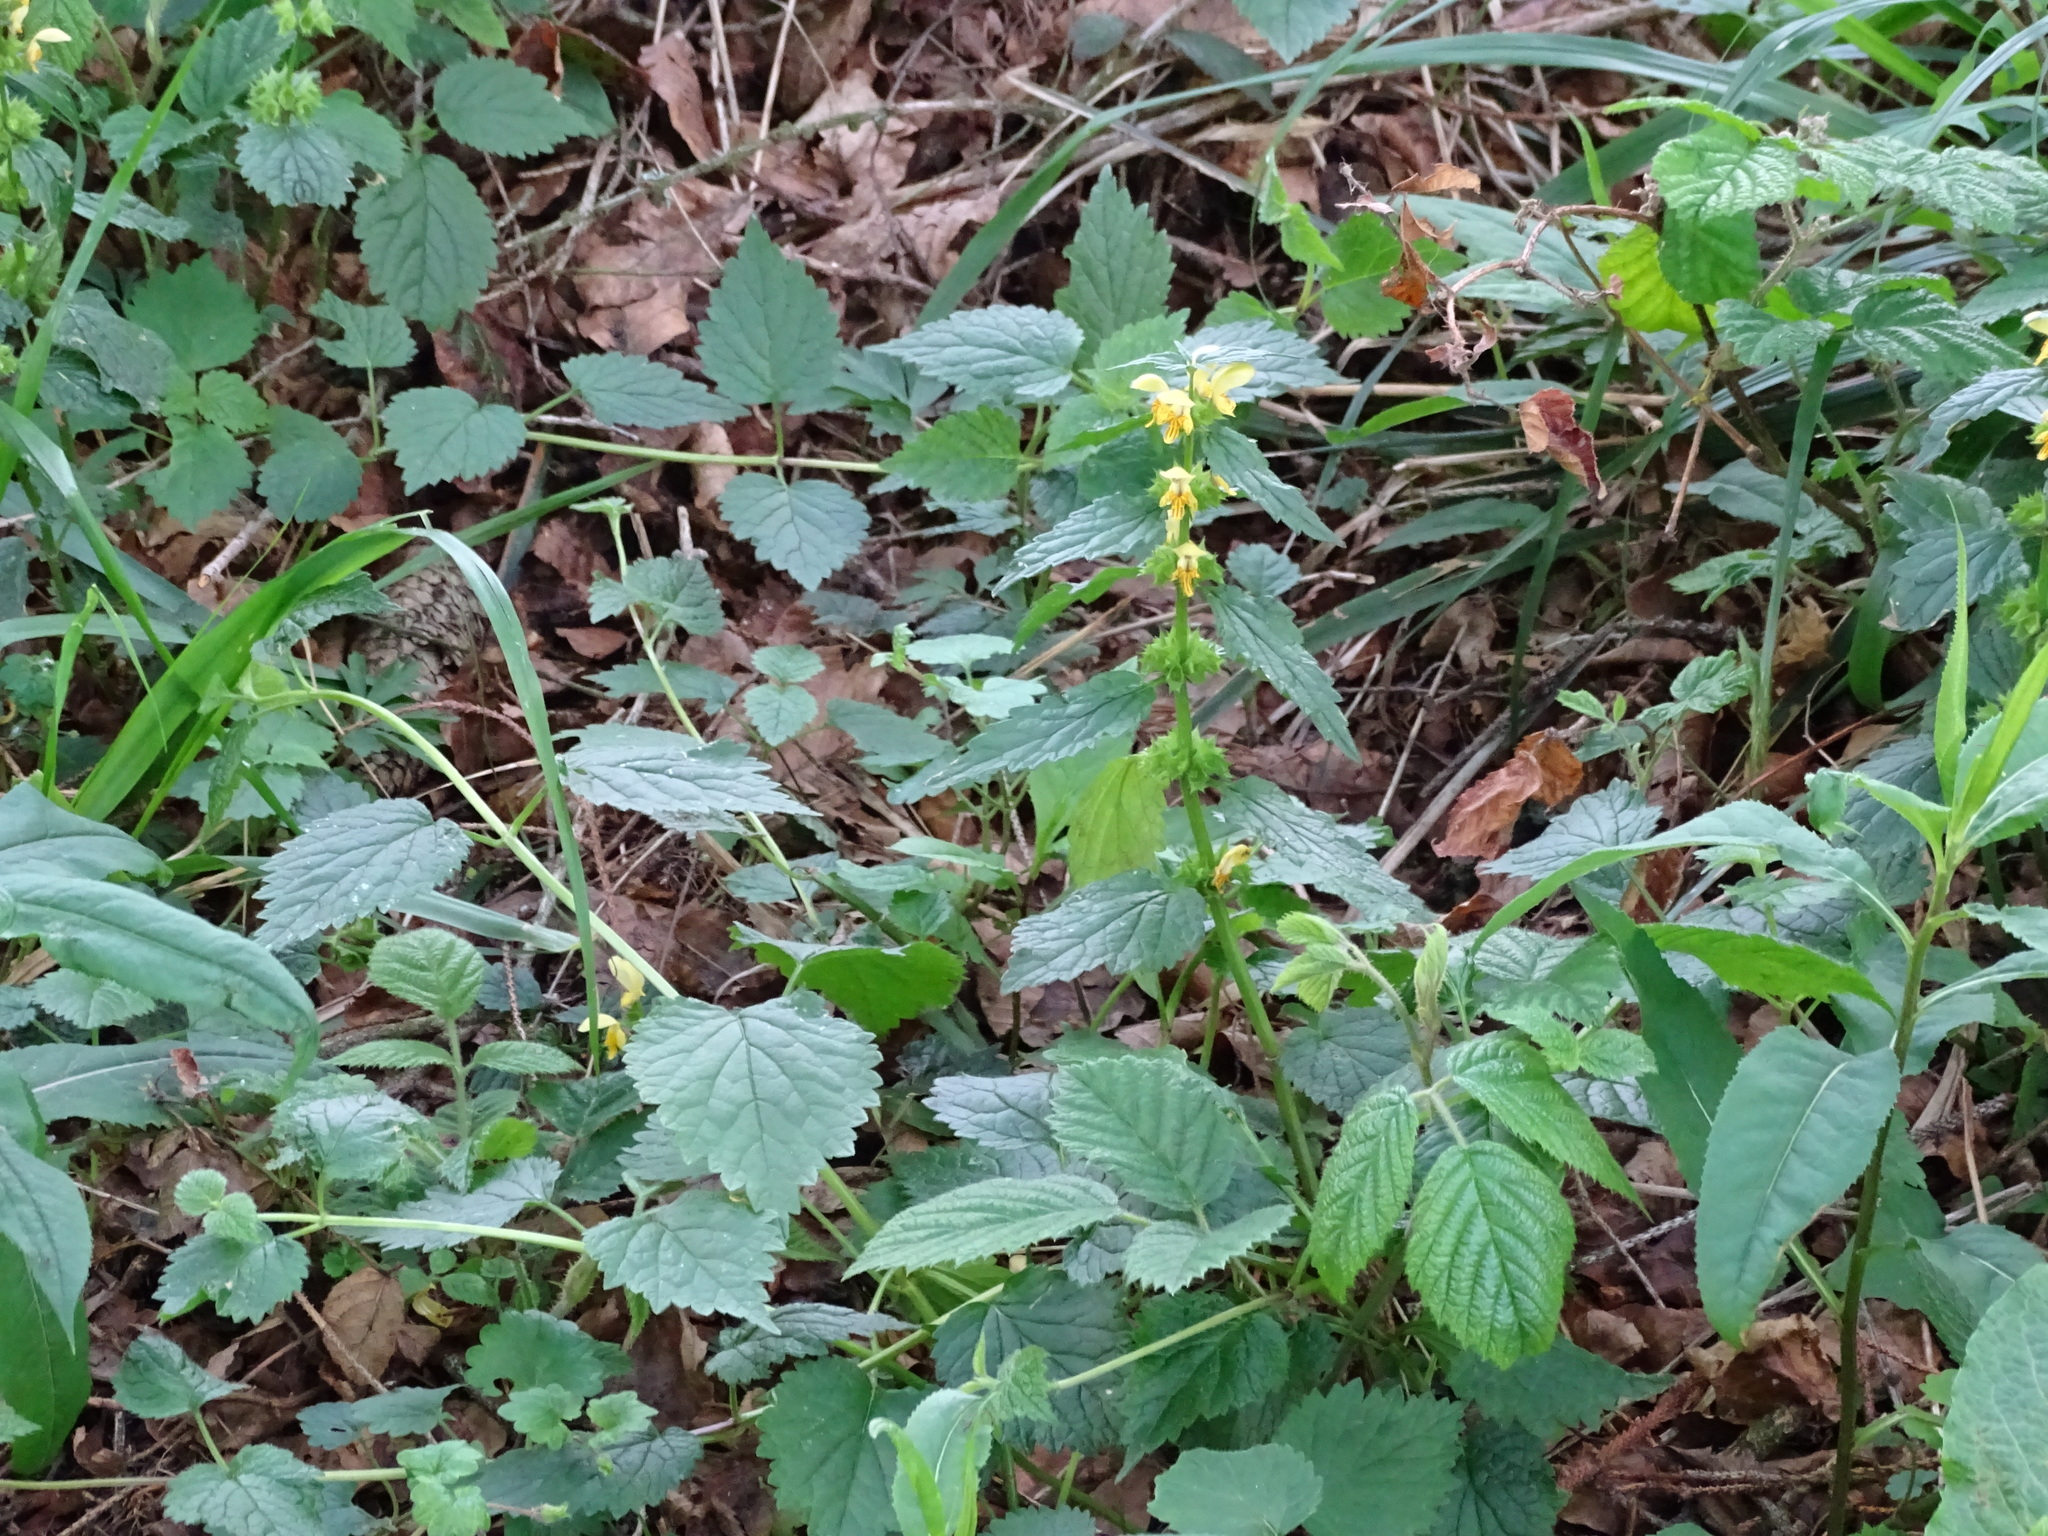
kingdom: Plantae
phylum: Tracheophyta
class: Magnoliopsida
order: Lamiales
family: Lamiaceae
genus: Lamium
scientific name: Lamium galeobdolon
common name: Yellow archangel
